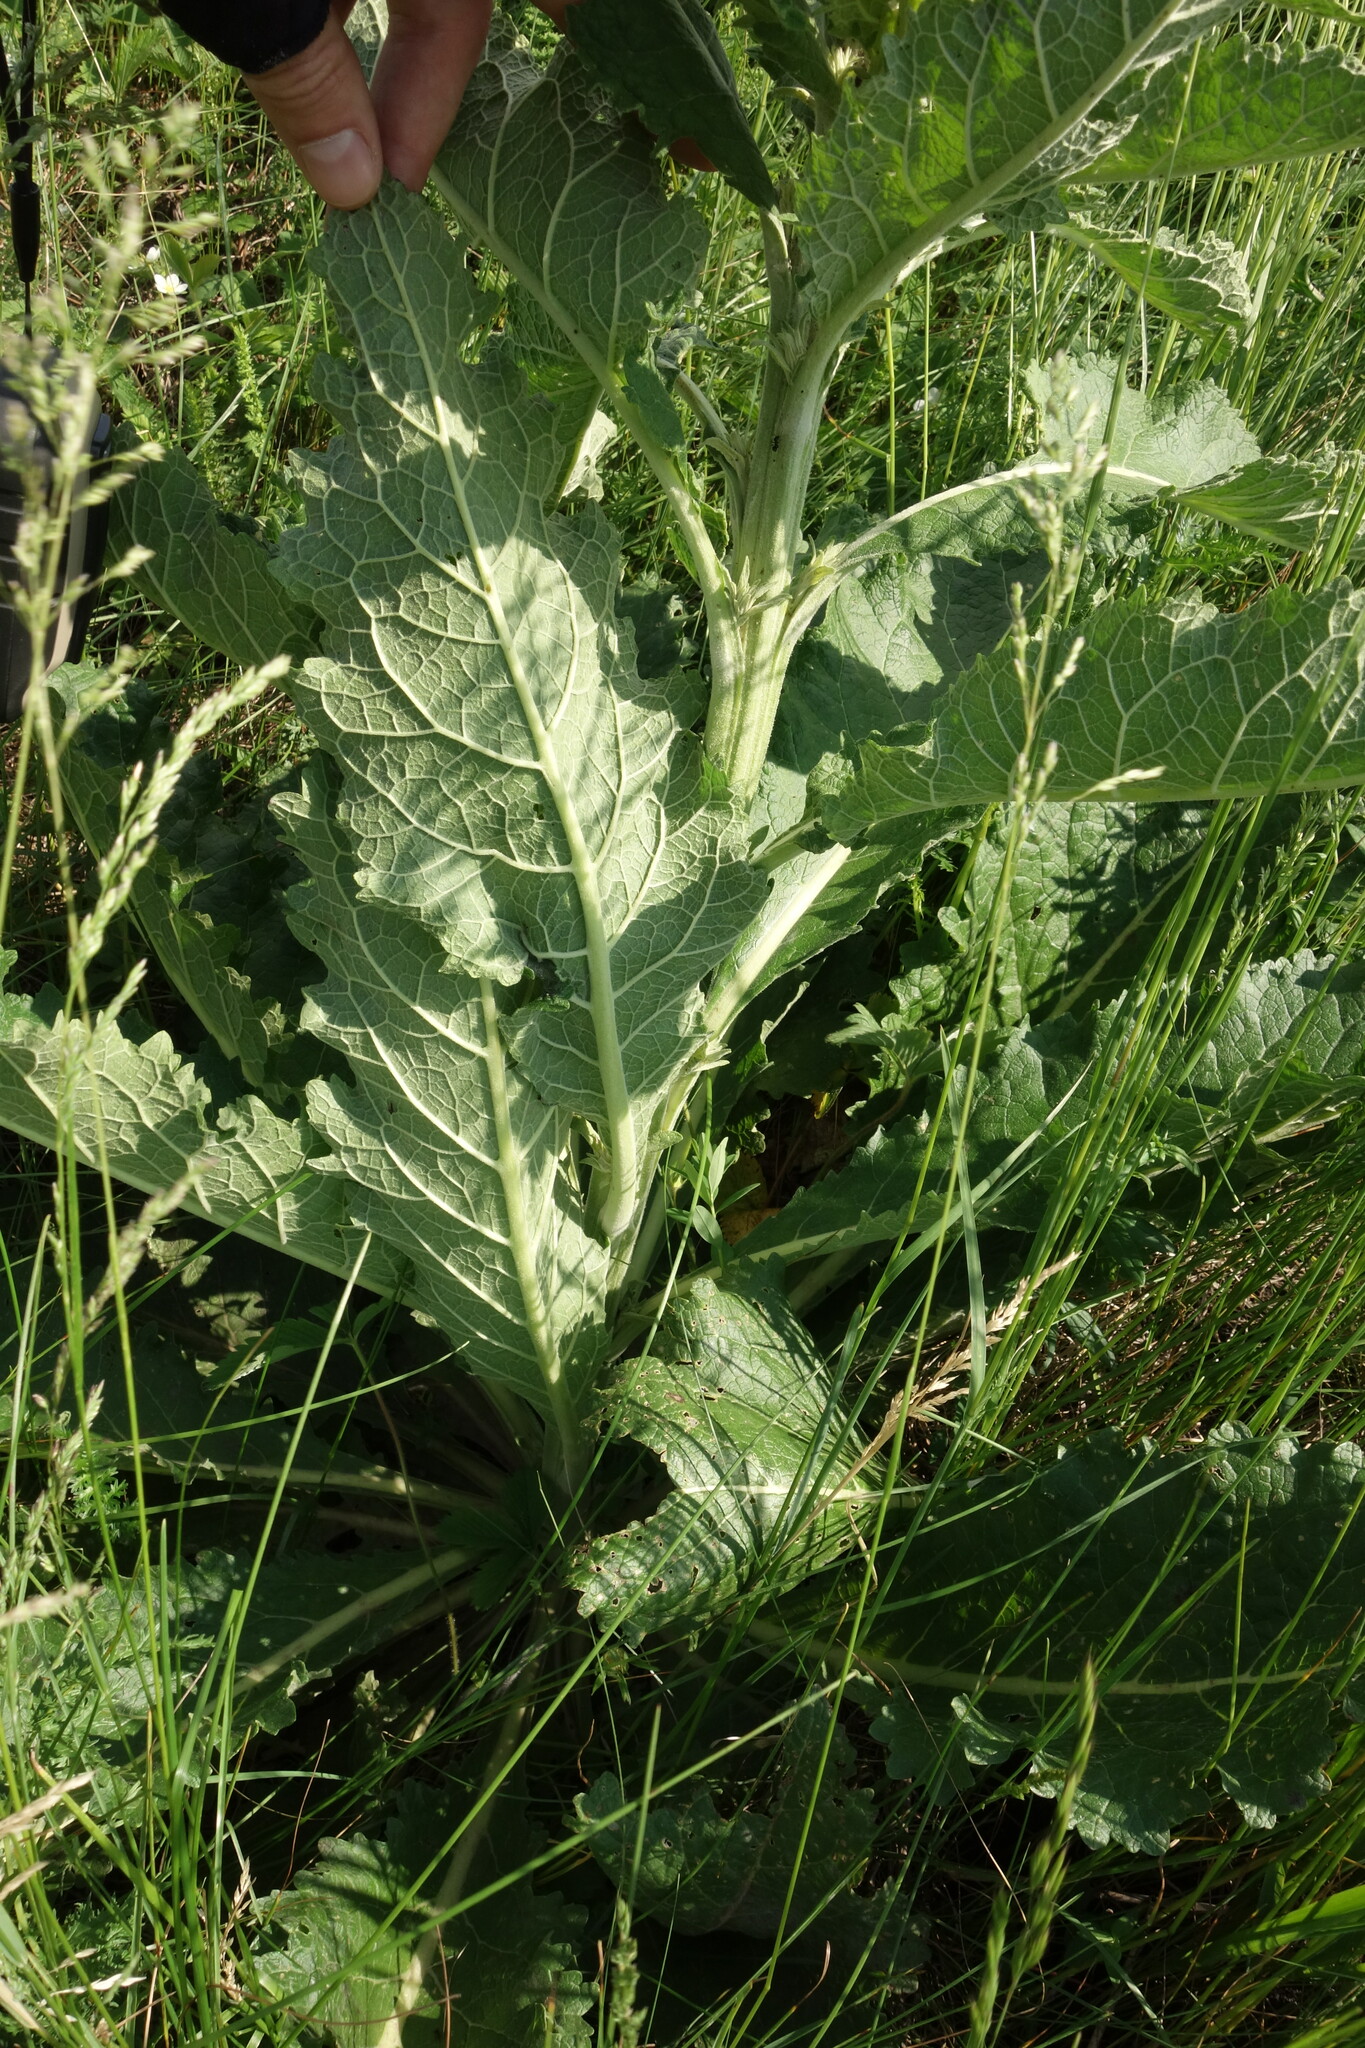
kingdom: Plantae
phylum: Tracheophyta
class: Magnoliopsida
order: Lamiales
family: Scrophulariaceae
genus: Verbascum
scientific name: Verbascum lychnitis
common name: White mullein
